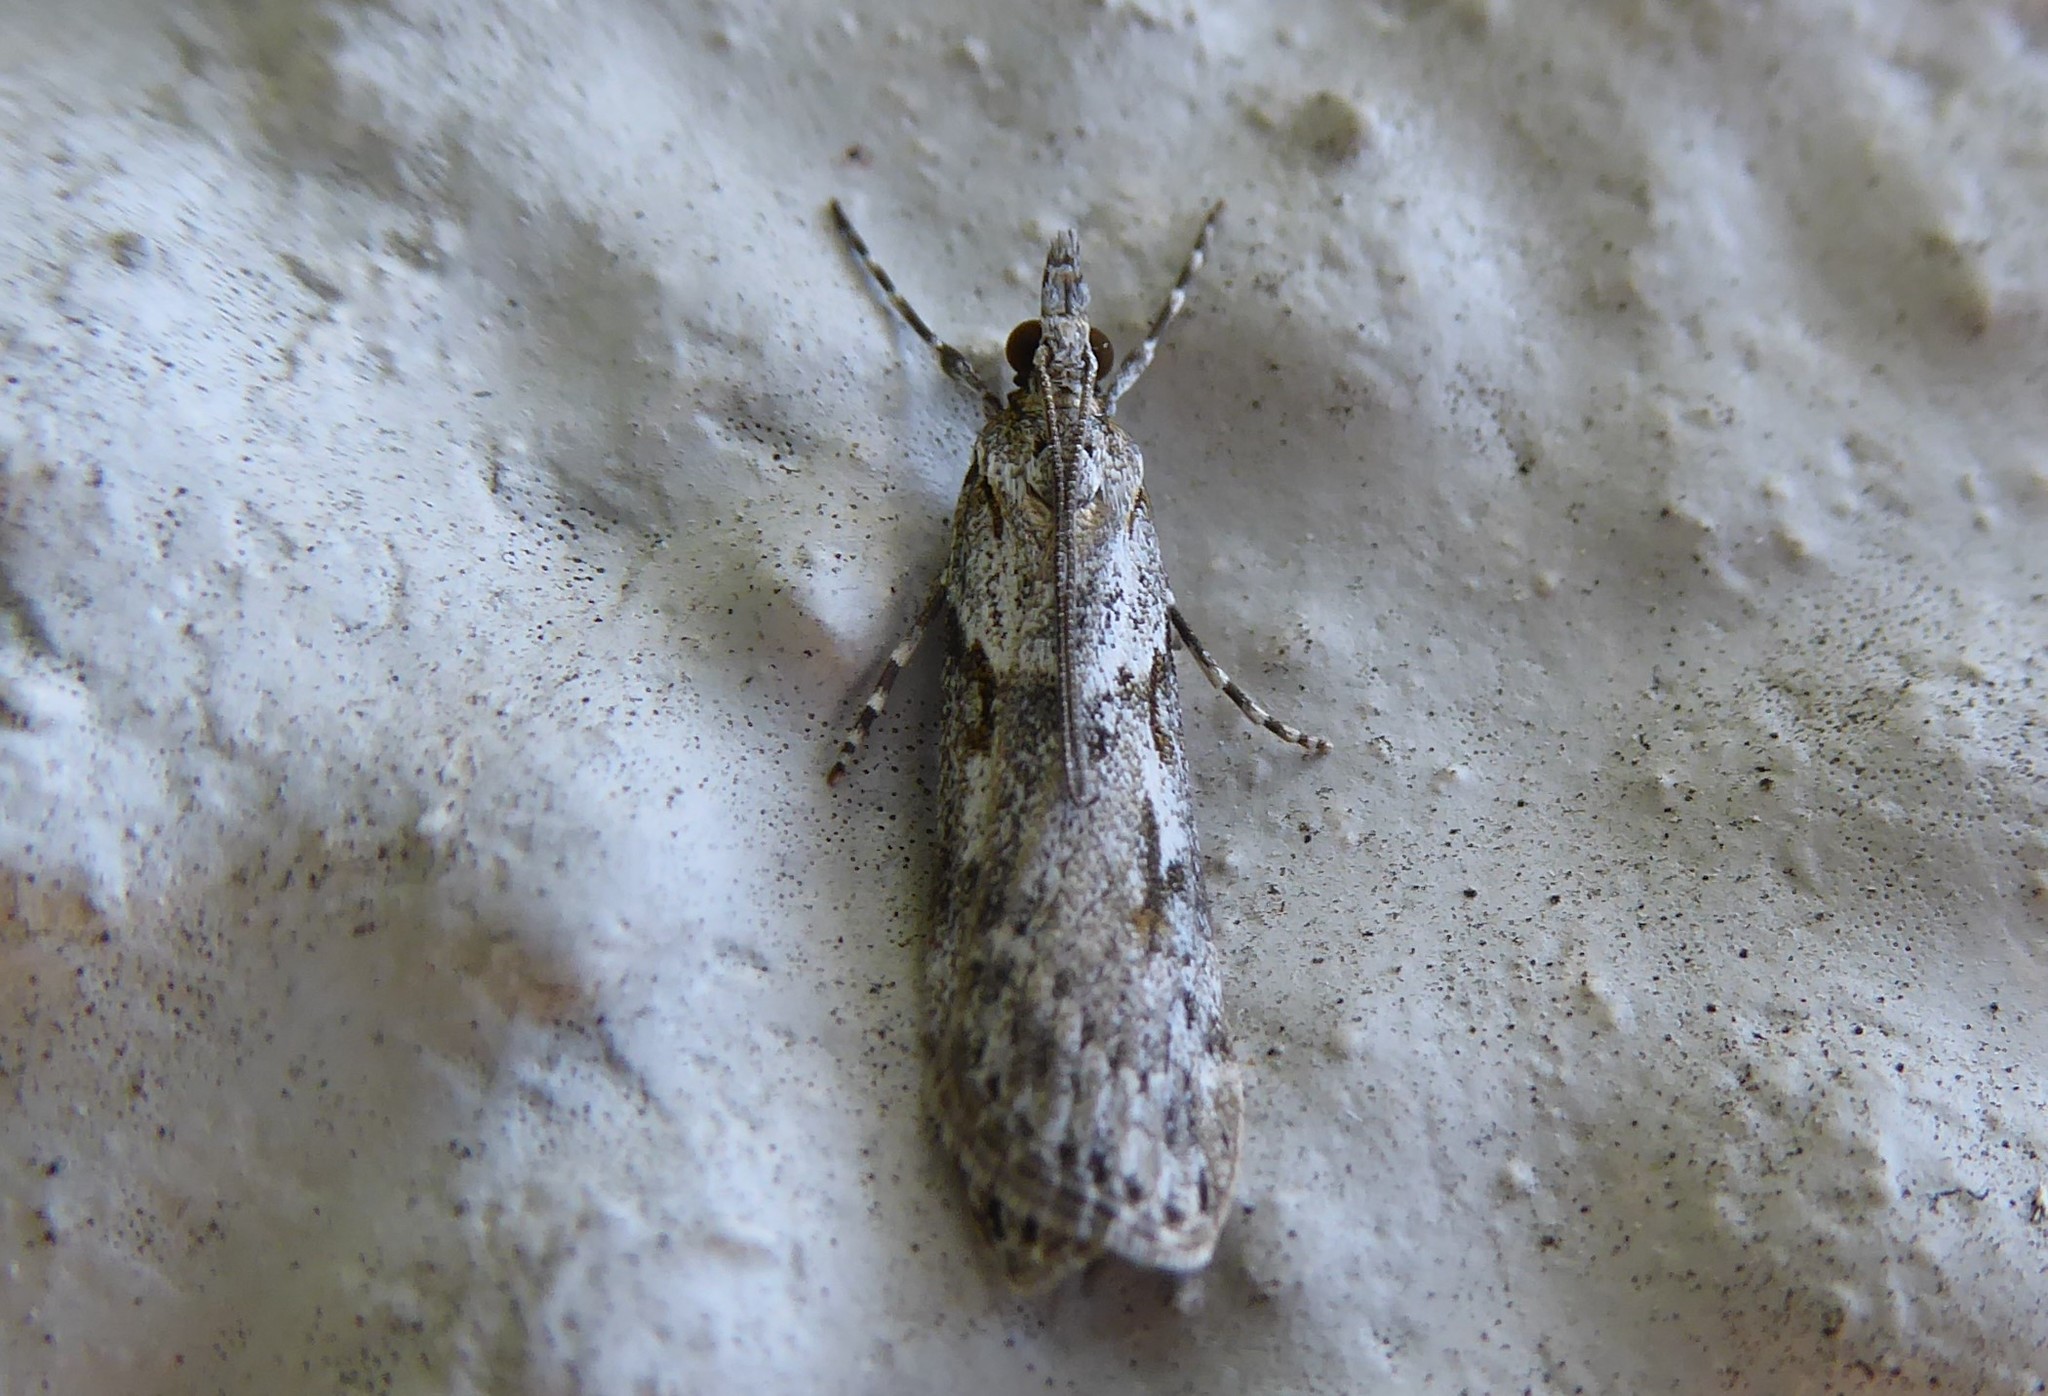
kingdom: Animalia
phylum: Arthropoda
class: Insecta
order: Lepidoptera
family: Crambidae
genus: Scoparia
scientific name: Scoparia halopis
